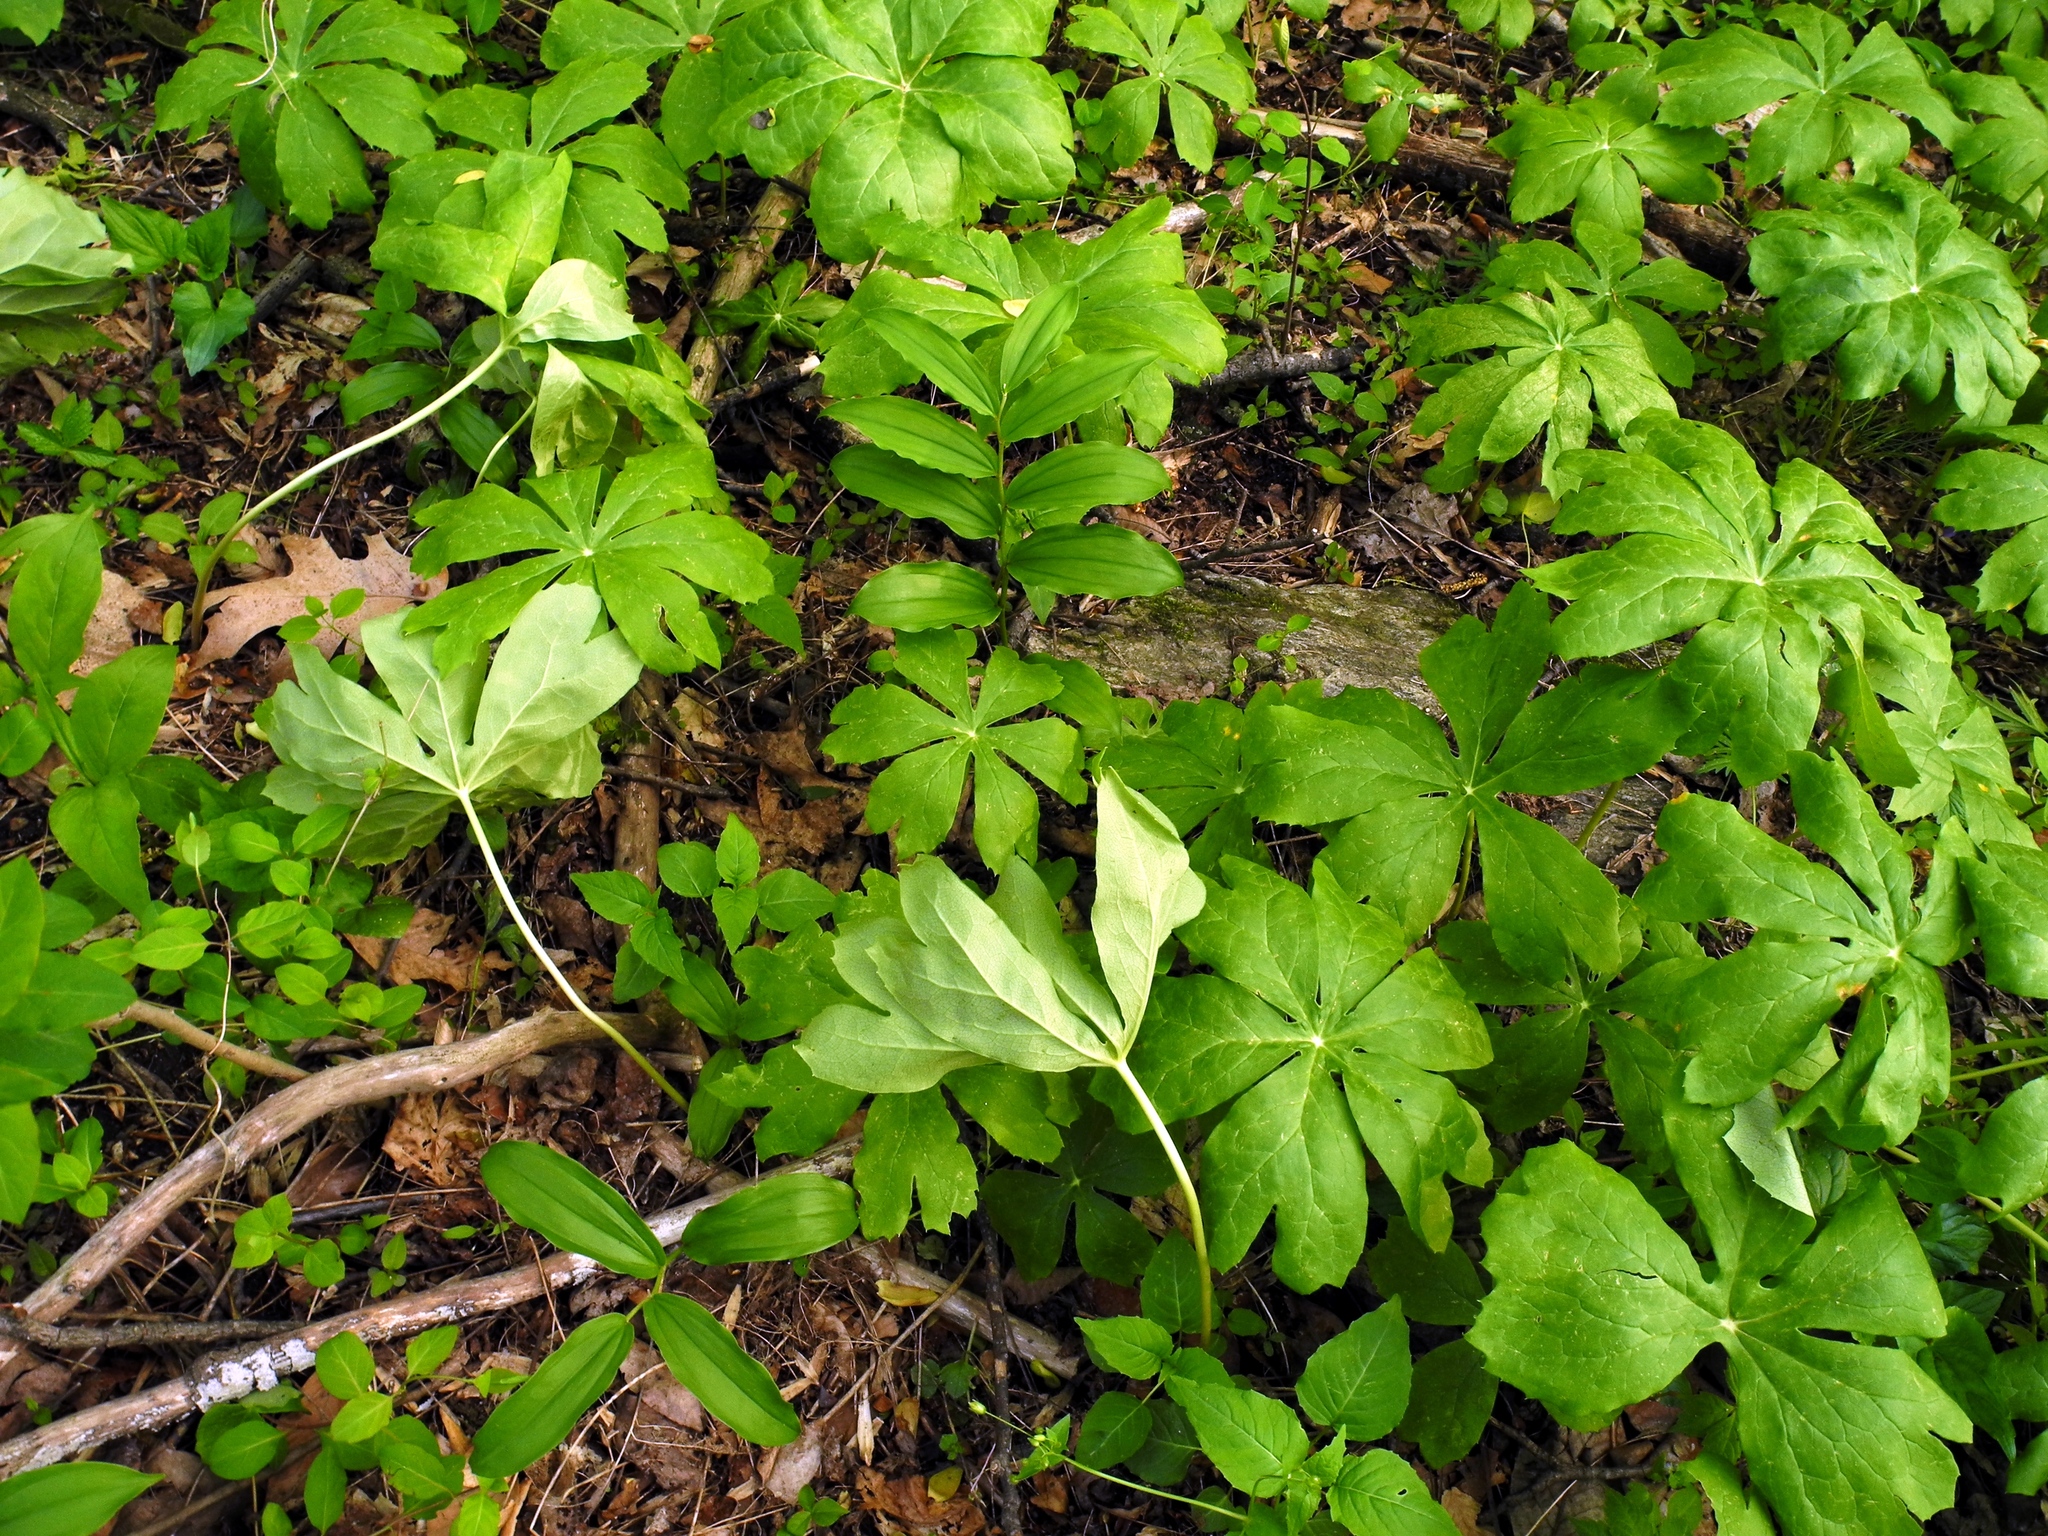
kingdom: Plantae
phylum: Tracheophyta
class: Magnoliopsida
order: Ranunculales
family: Berberidaceae
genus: Podophyllum
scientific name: Podophyllum peltatum
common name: Wild mandrake
